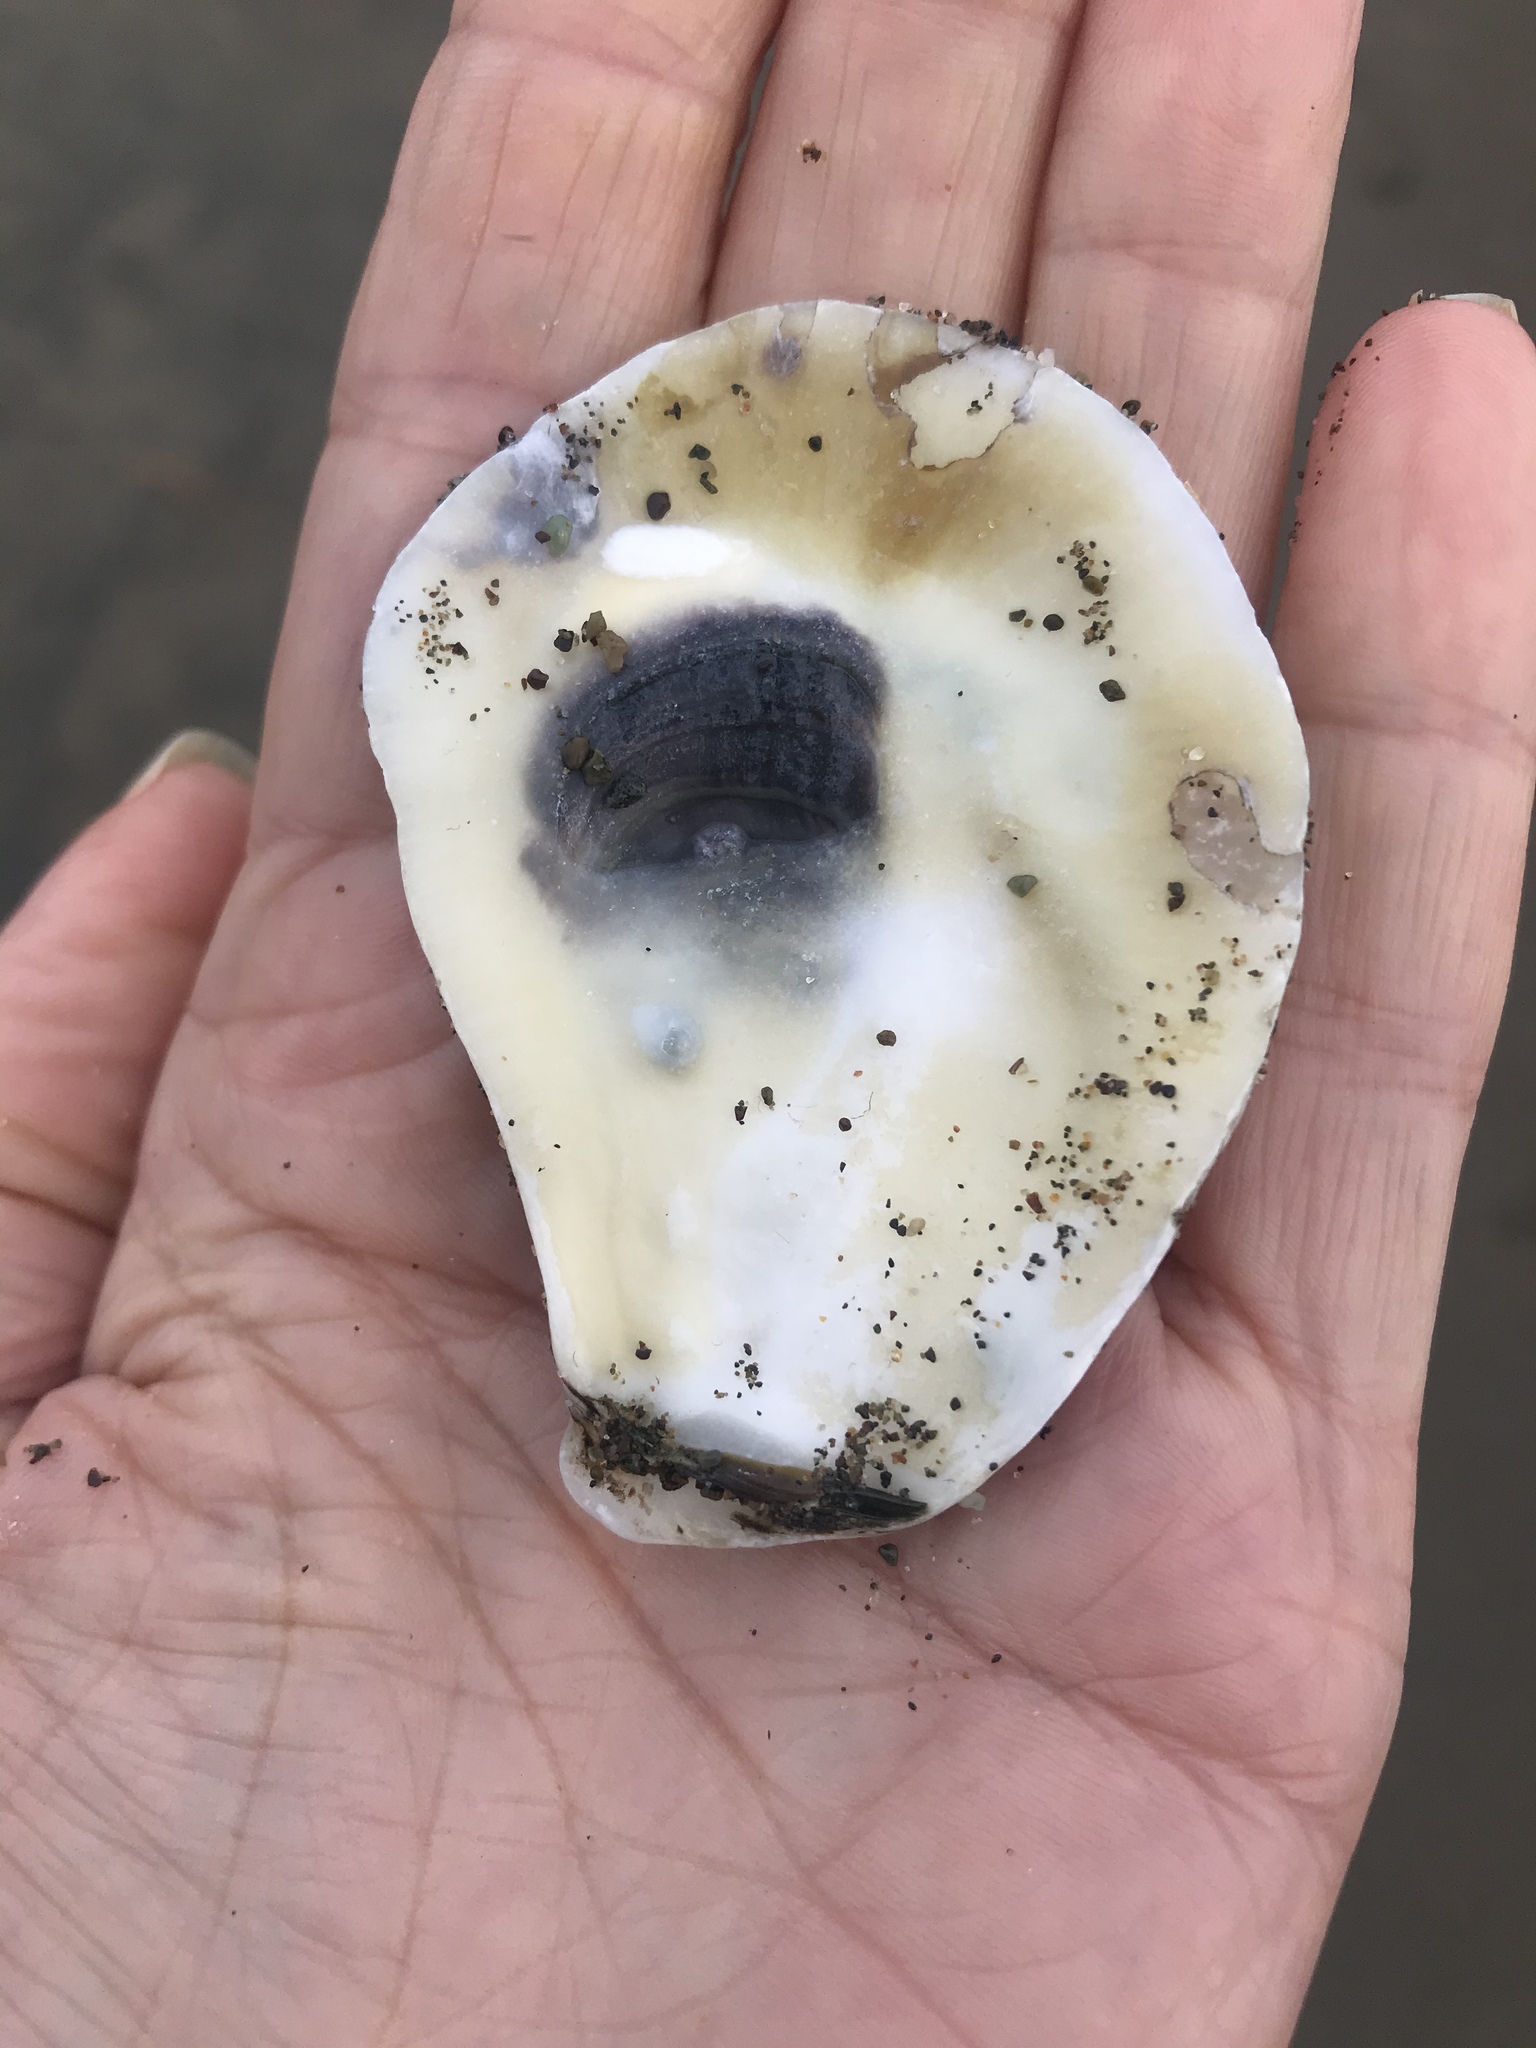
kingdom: Animalia
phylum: Mollusca
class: Bivalvia
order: Ostreida
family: Ostreidae
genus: Magallana
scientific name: Magallana gigas
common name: Pacific oyster
